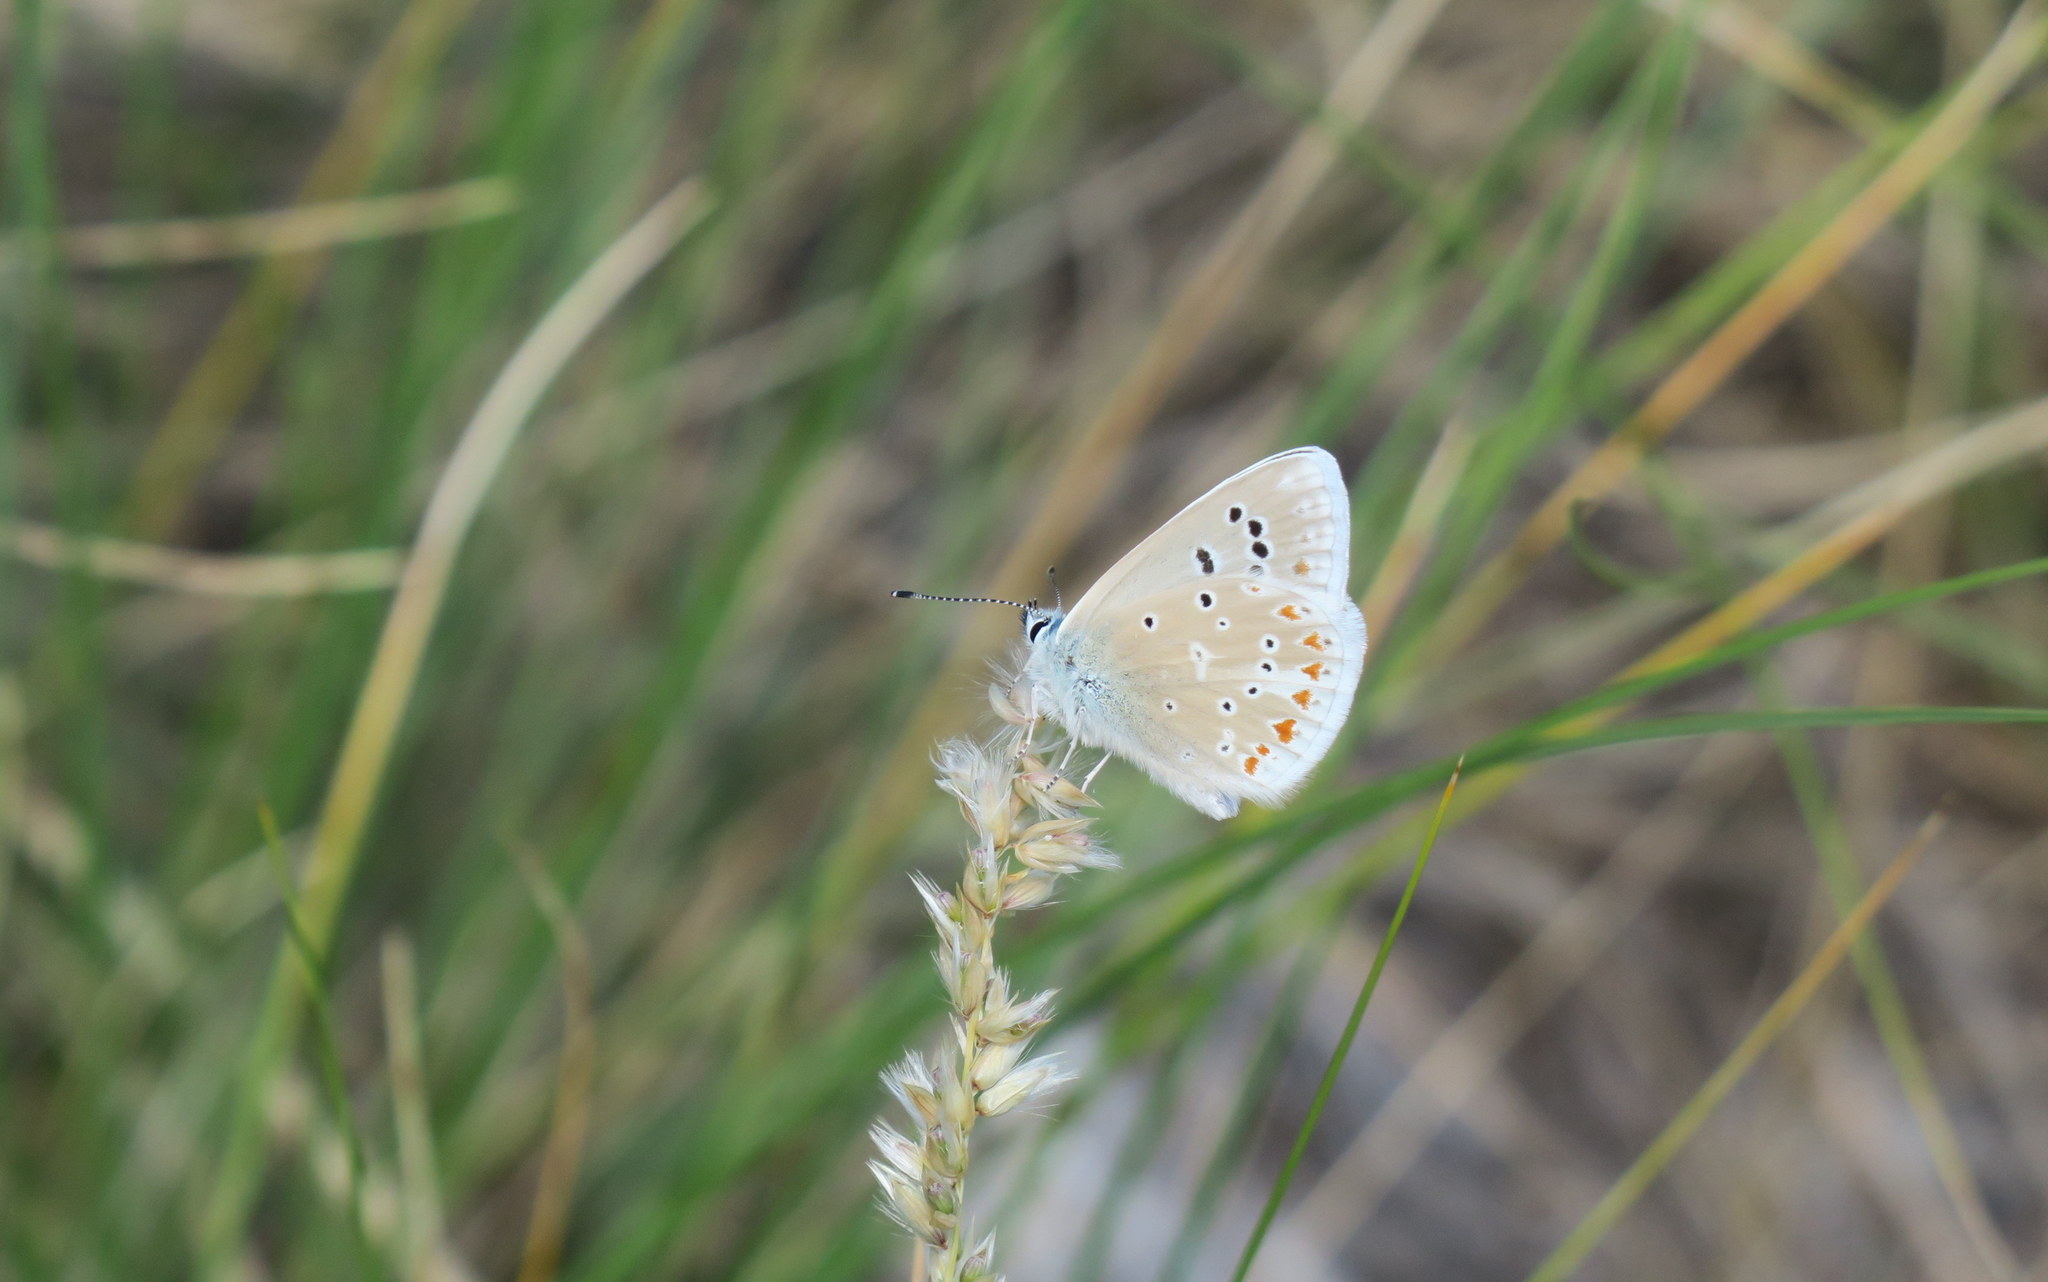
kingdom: Animalia
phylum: Arthropoda
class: Insecta
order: Lepidoptera
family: Lycaenidae
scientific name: Lycaenidae
